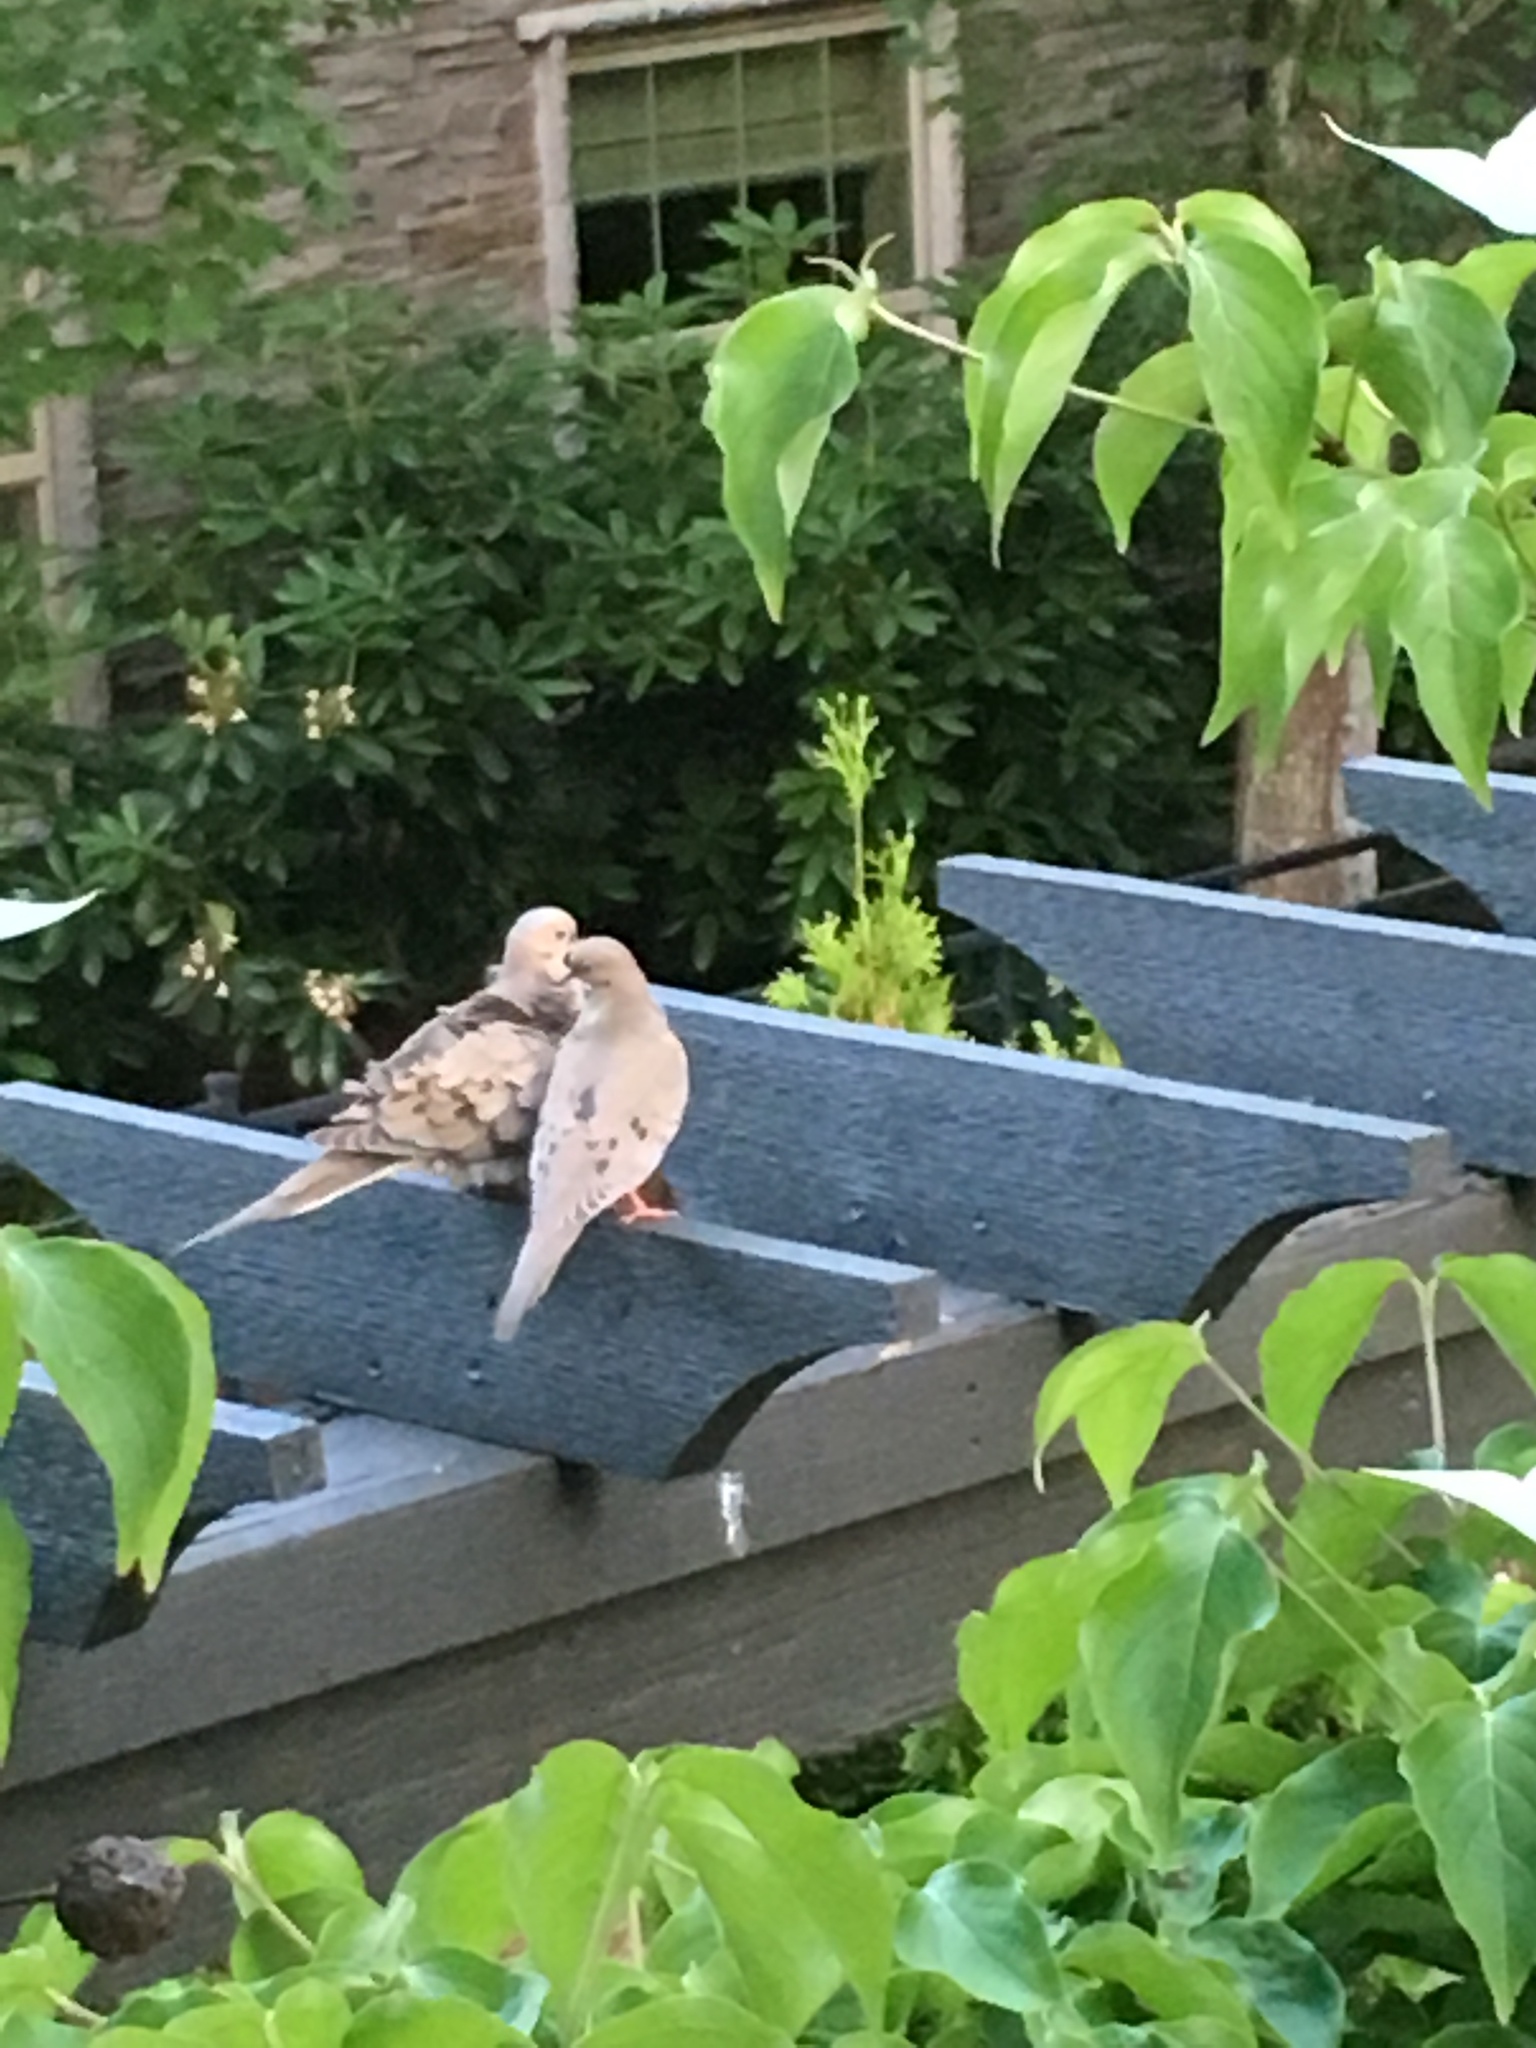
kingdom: Animalia
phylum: Chordata
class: Aves
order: Columbiformes
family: Columbidae
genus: Zenaida
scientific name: Zenaida macroura
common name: Mourning dove
